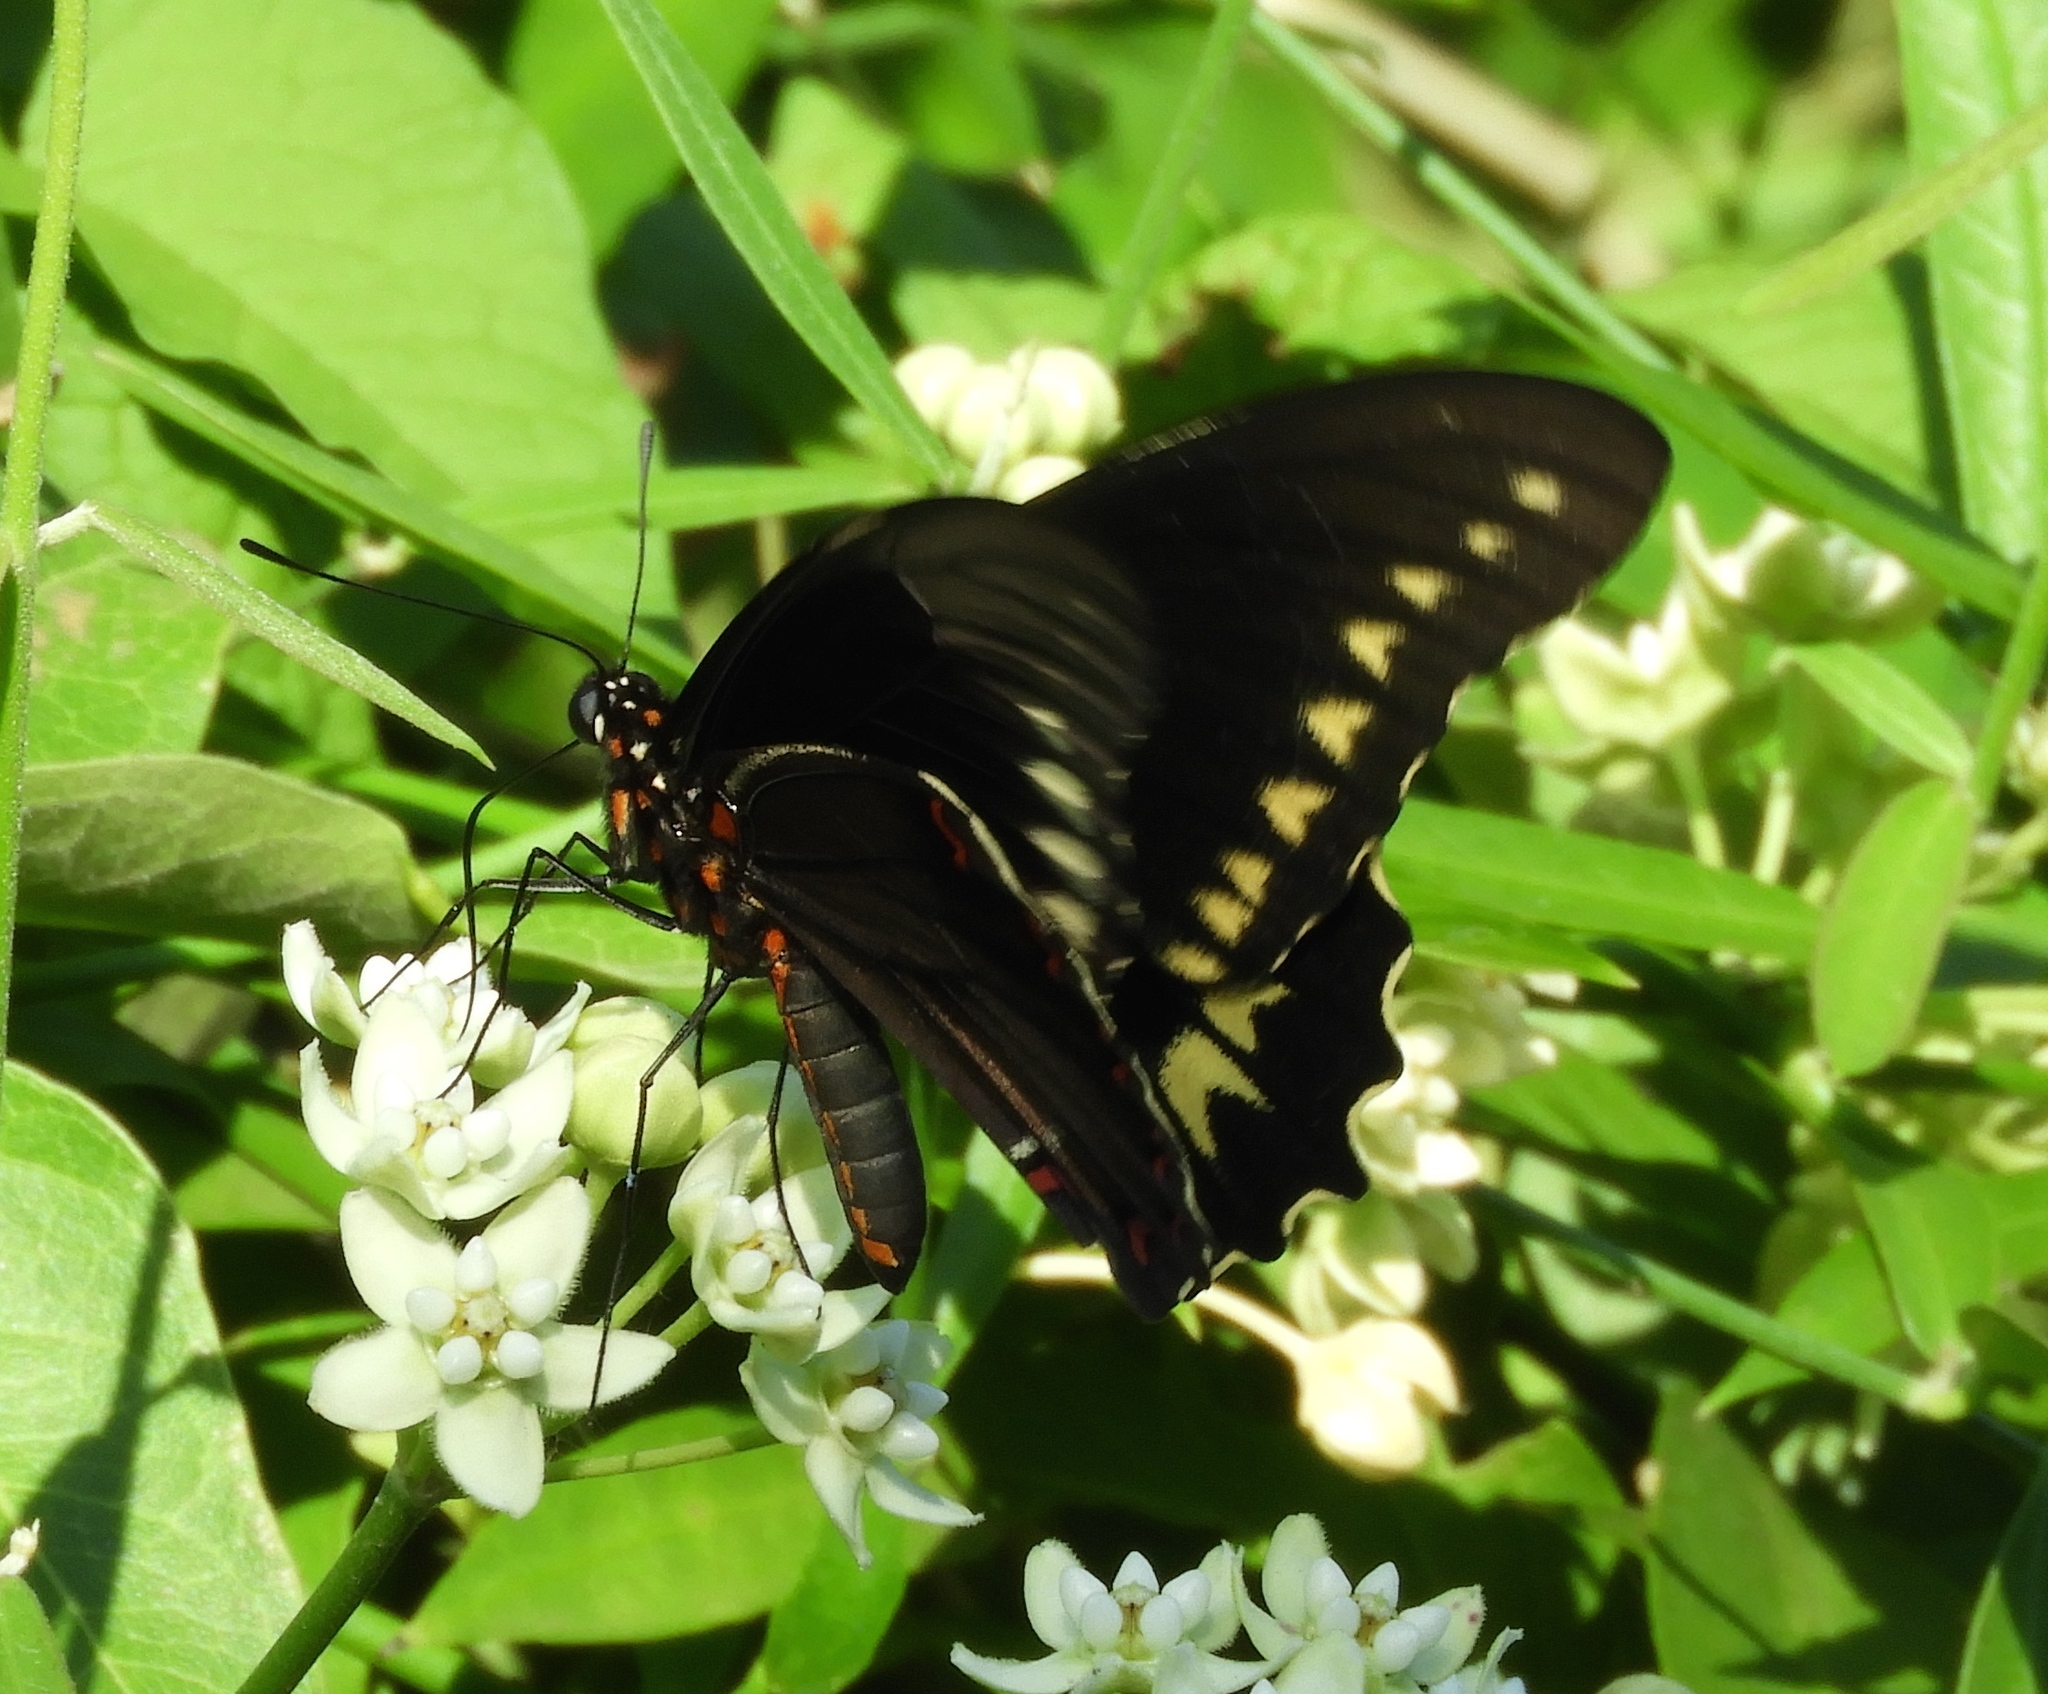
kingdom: Animalia
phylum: Arthropoda
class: Insecta
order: Lepidoptera
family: Papilionidae
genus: Battus
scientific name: Battus polydamas
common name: Polydamas swallowtail
